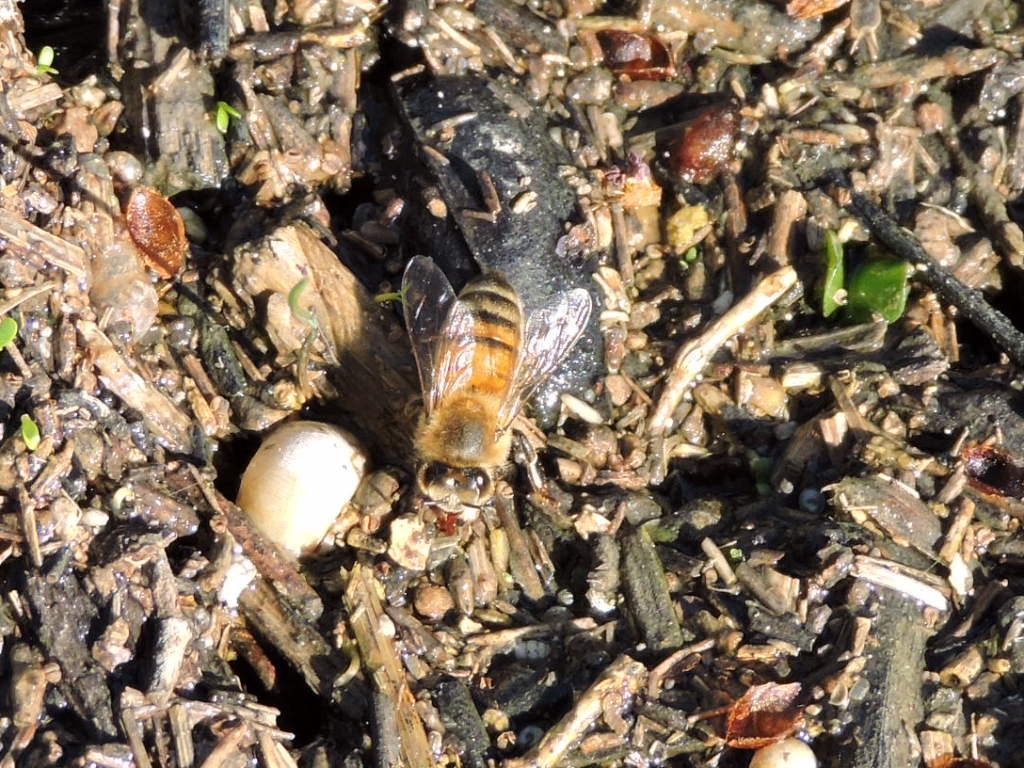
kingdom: Animalia
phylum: Arthropoda
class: Insecta
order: Hymenoptera
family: Apidae
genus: Apis
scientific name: Apis mellifera
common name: Honey bee
